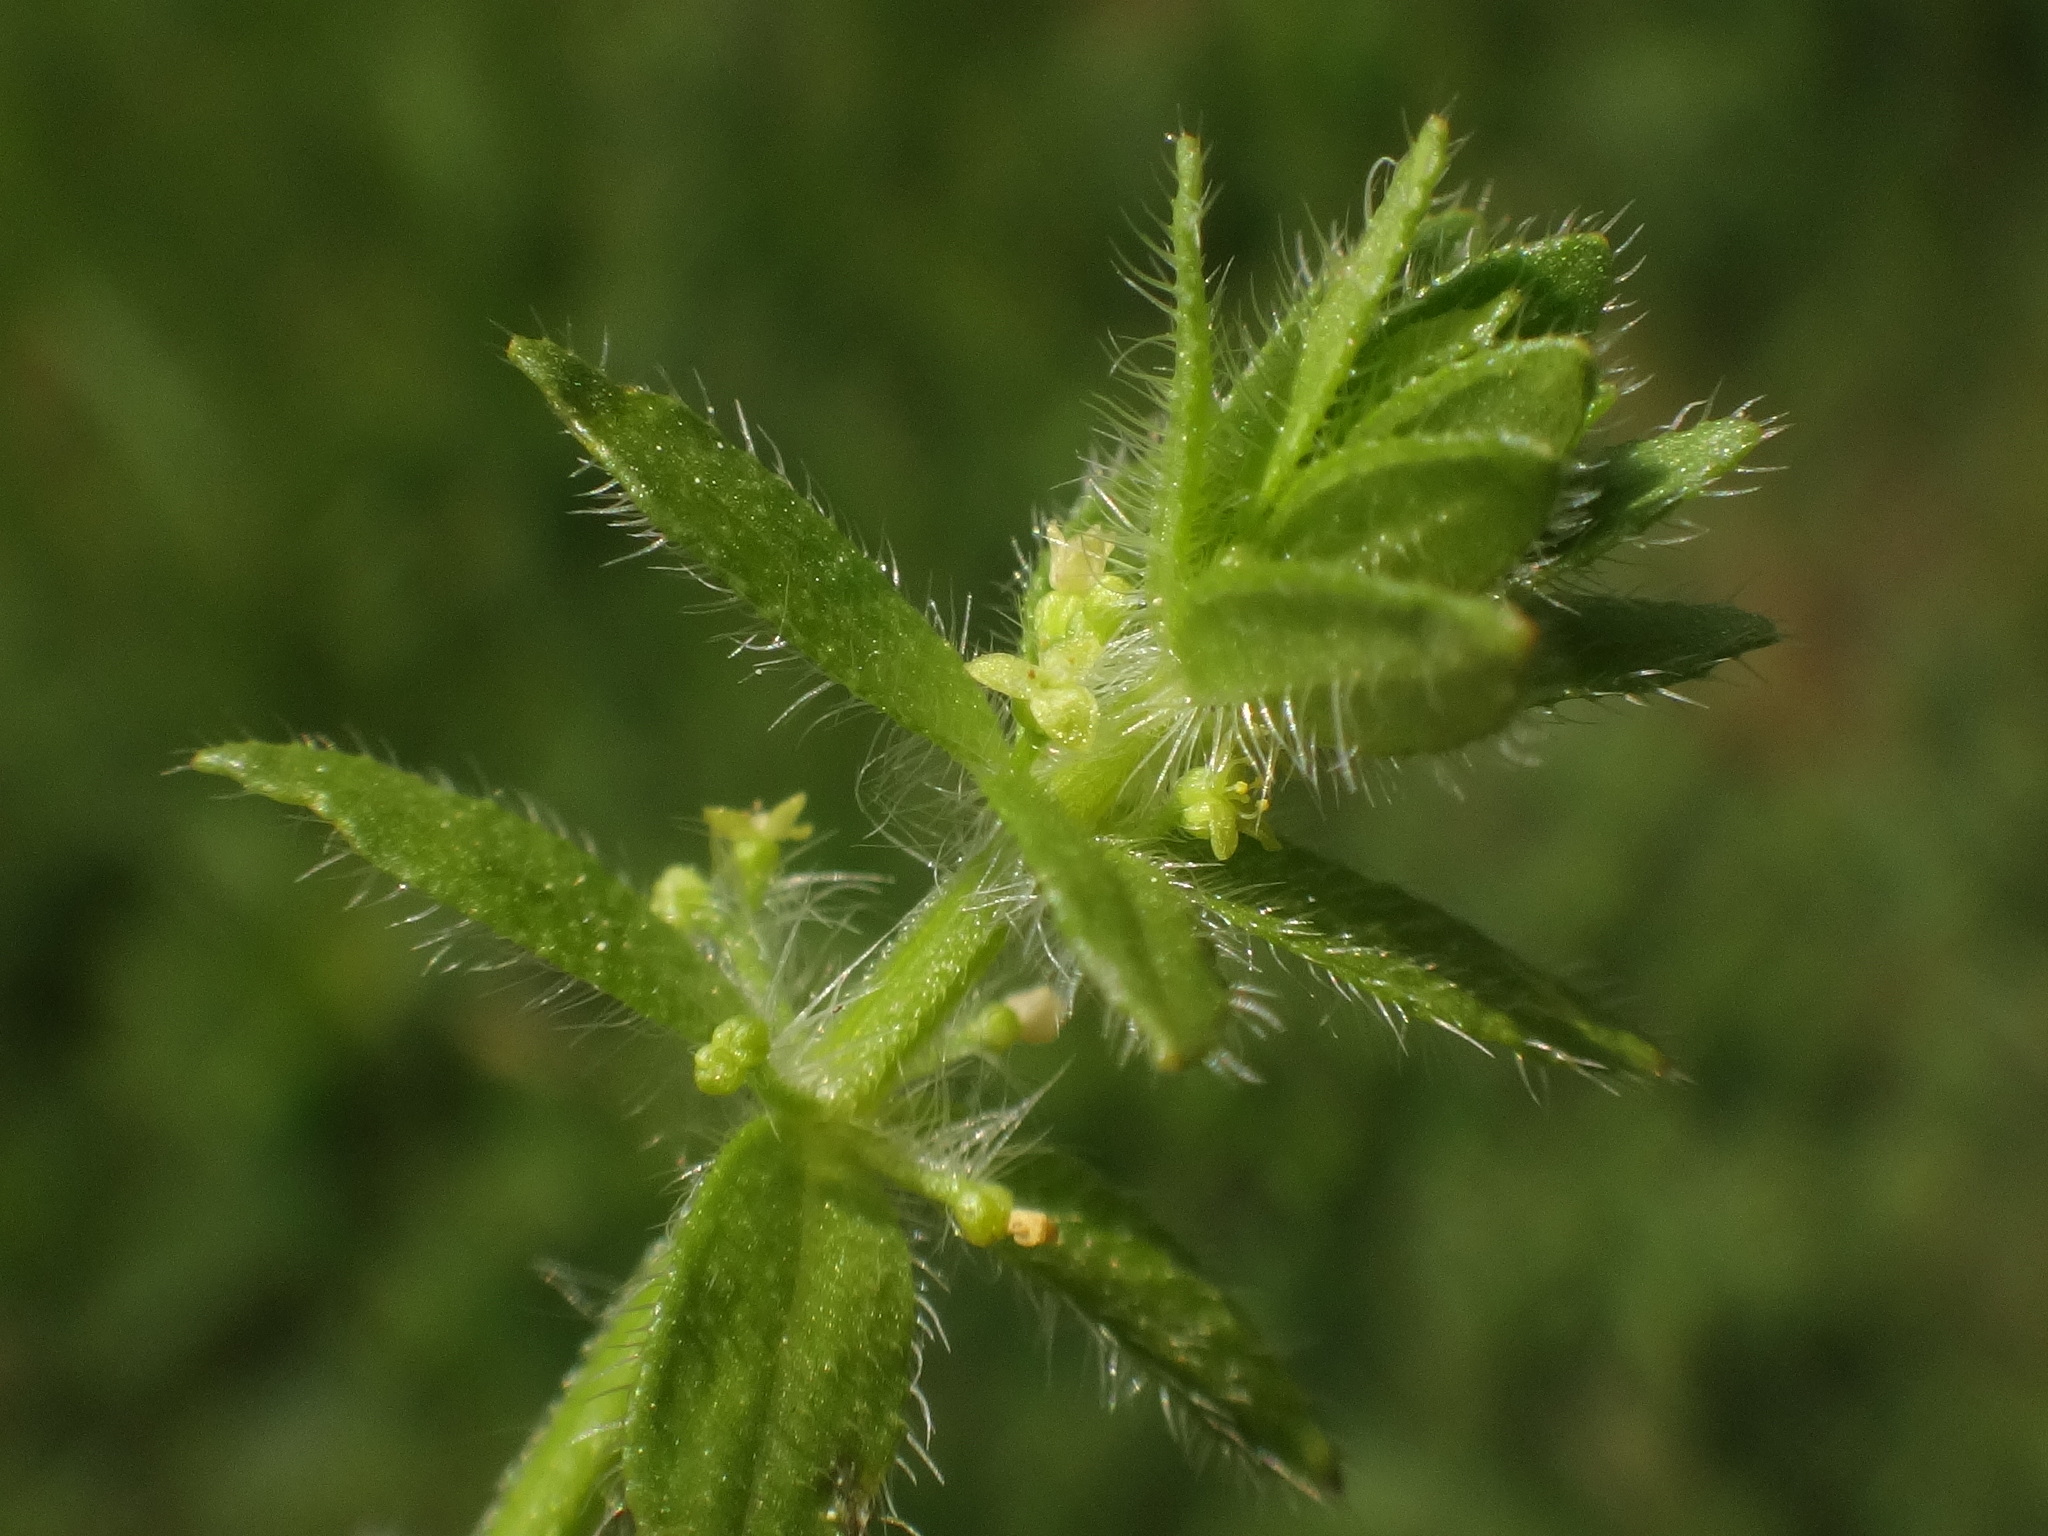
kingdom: Plantae
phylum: Tracheophyta
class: Magnoliopsida
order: Gentianales
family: Rubiaceae
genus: Cruciata
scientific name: Cruciata pedemontana
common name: Piedmont bedstraw
